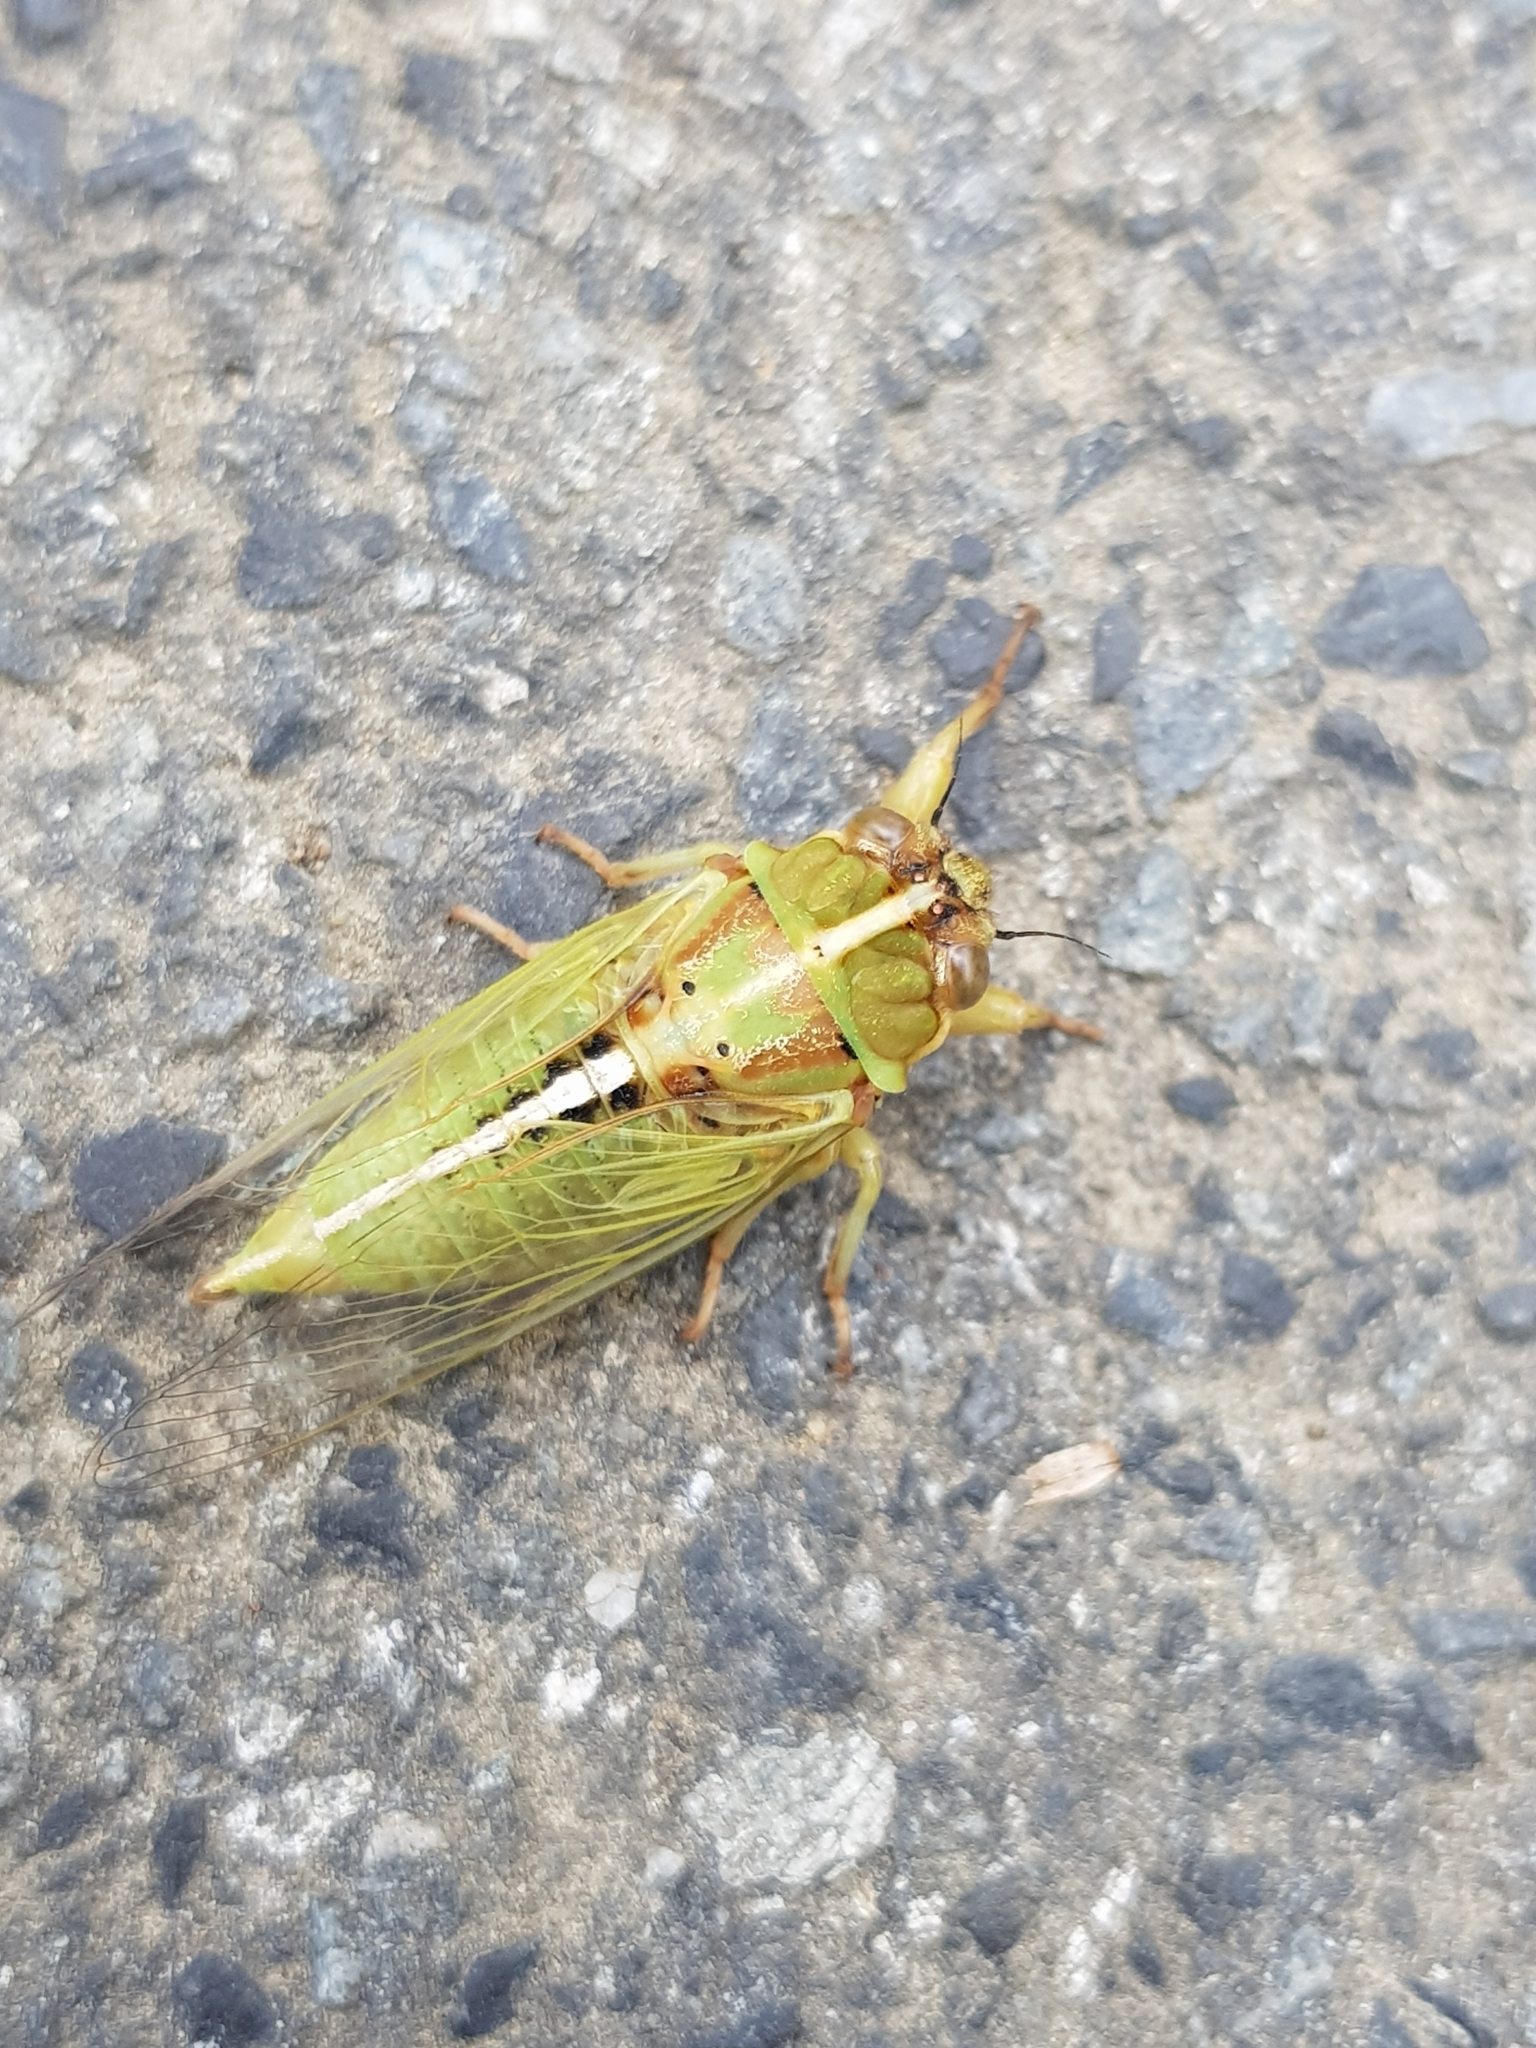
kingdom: Animalia
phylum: Arthropoda
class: Insecta
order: Hemiptera
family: Cicadidae
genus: Kikihia
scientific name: Kikihia muta
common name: Variable cicada
